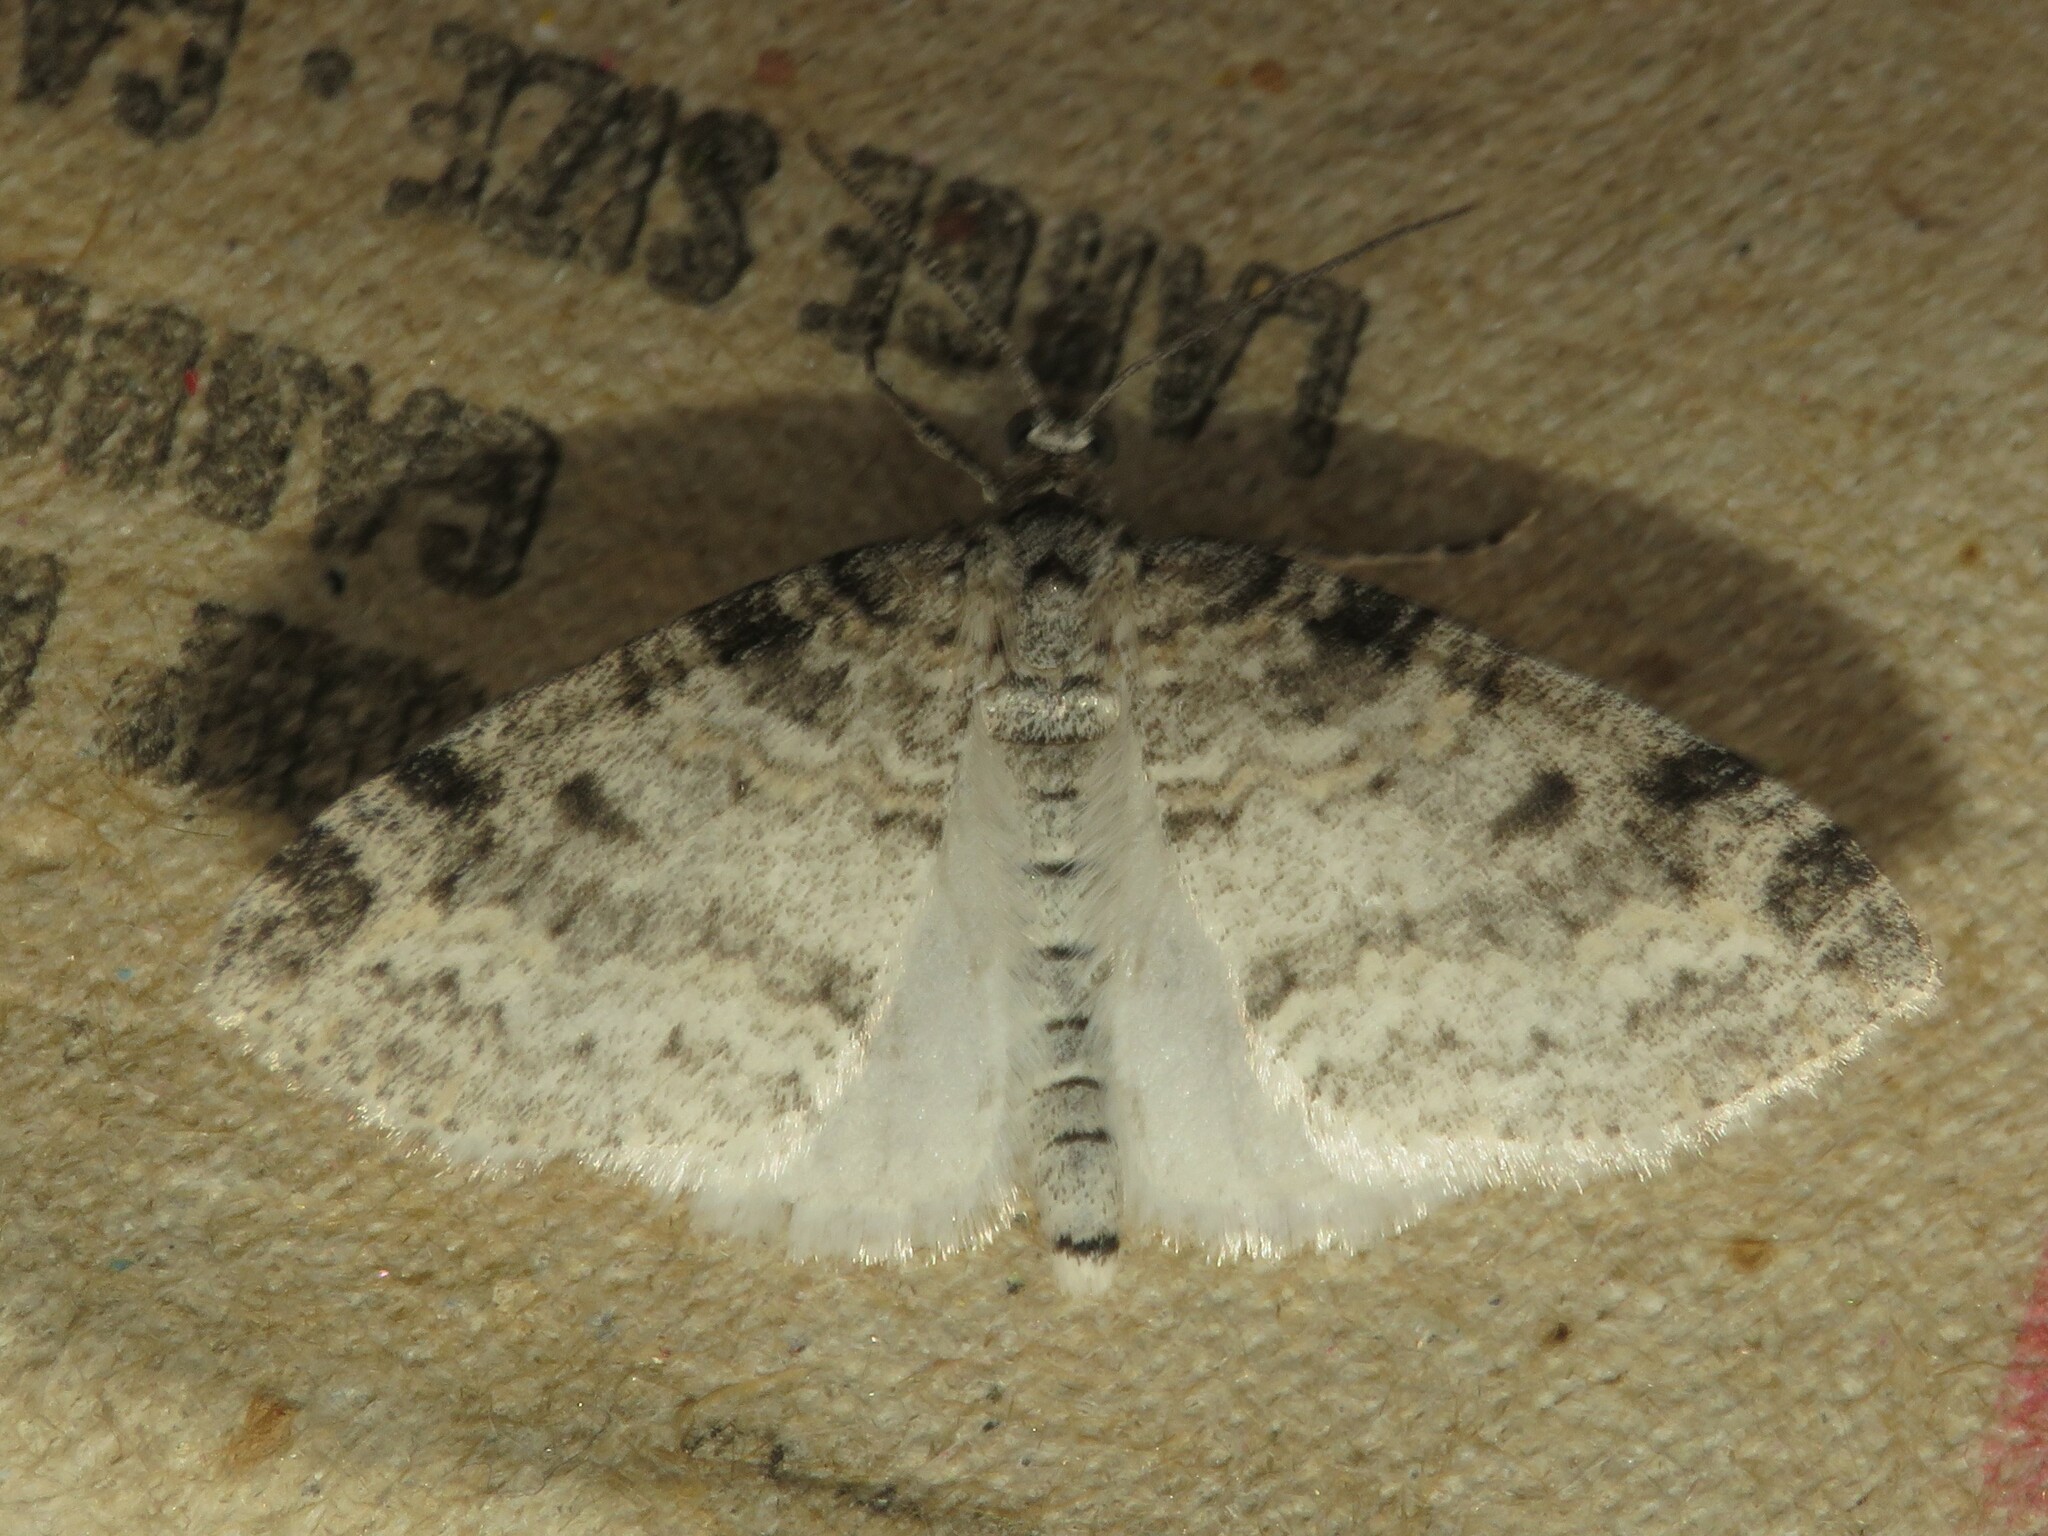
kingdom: Animalia
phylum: Arthropoda
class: Insecta
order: Lepidoptera
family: Geometridae
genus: Lobophora
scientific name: Lobophora nivigerata
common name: Powdered bigwing
